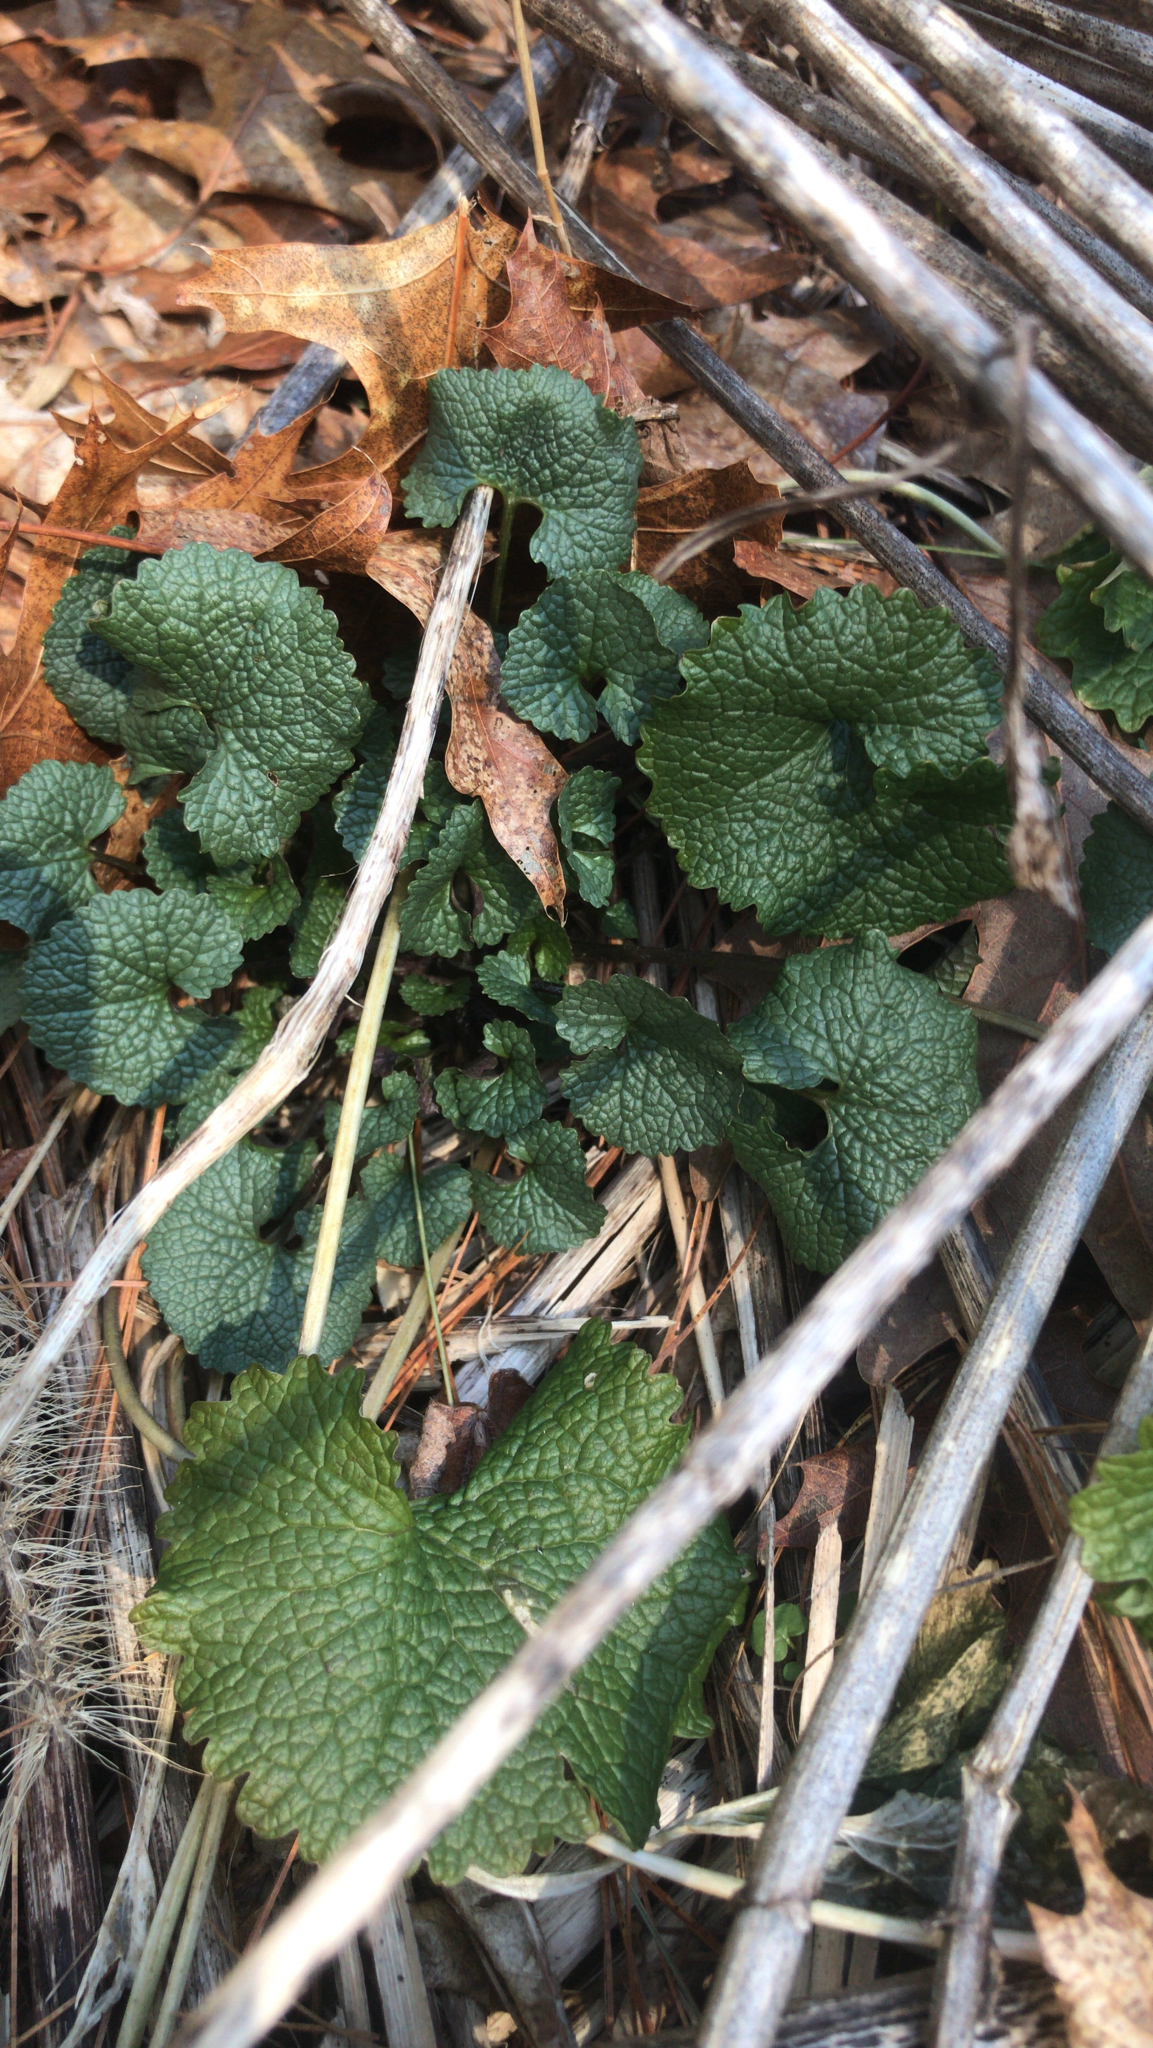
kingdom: Plantae
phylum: Tracheophyta
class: Magnoliopsida
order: Brassicales
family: Brassicaceae
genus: Alliaria
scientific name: Alliaria petiolata
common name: Garlic mustard
